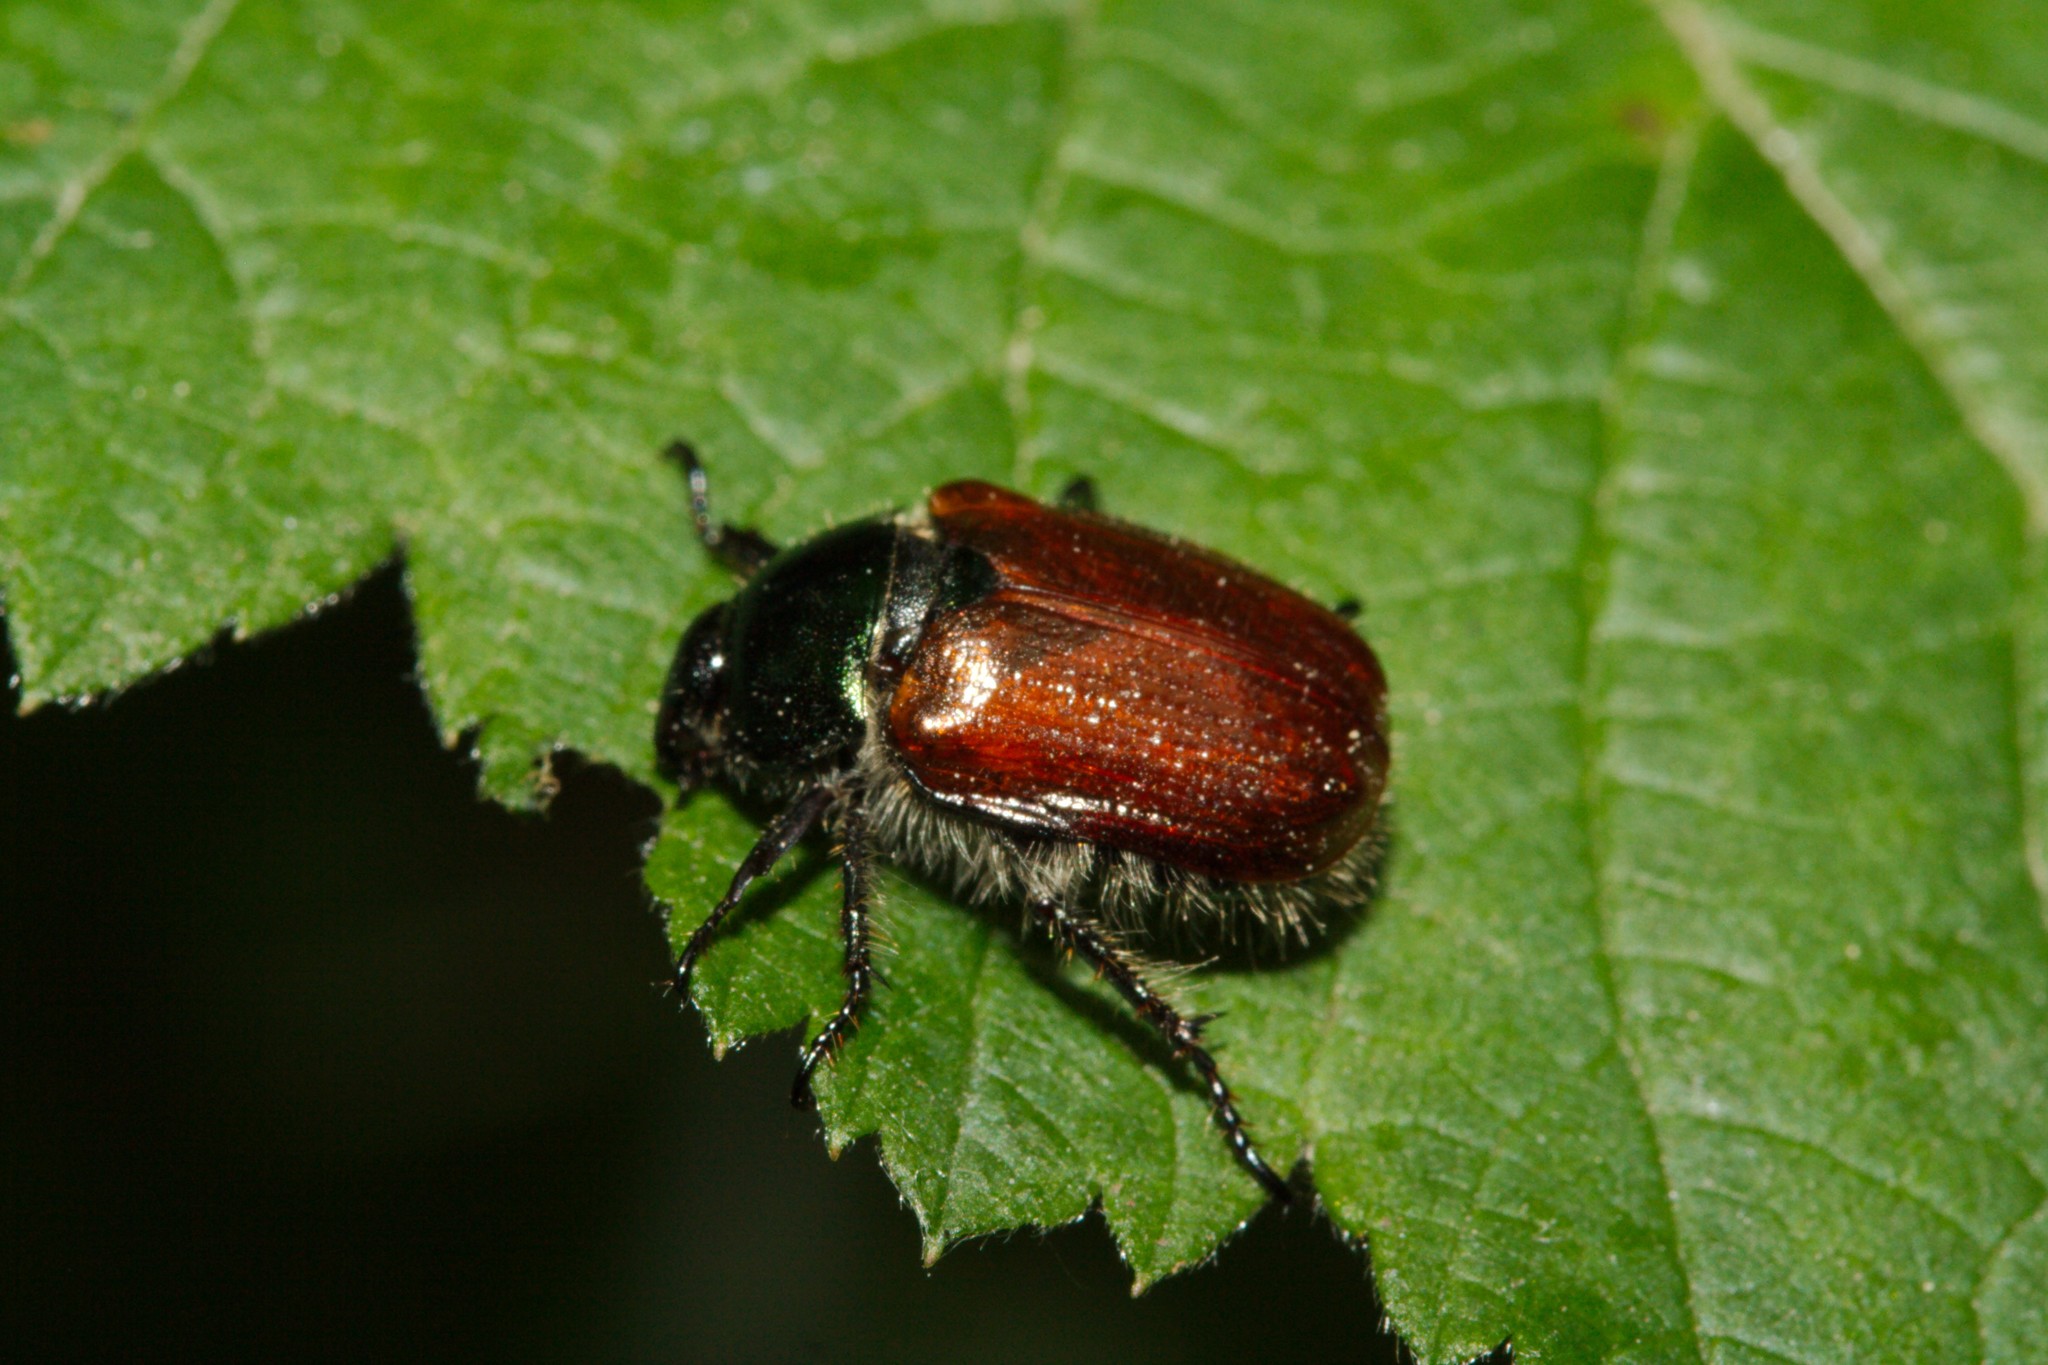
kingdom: Animalia
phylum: Arthropoda
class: Insecta
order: Coleoptera
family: Scarabaeidae
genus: Phyllopertha
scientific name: Phyllopertha horticola
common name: Garden chafer
